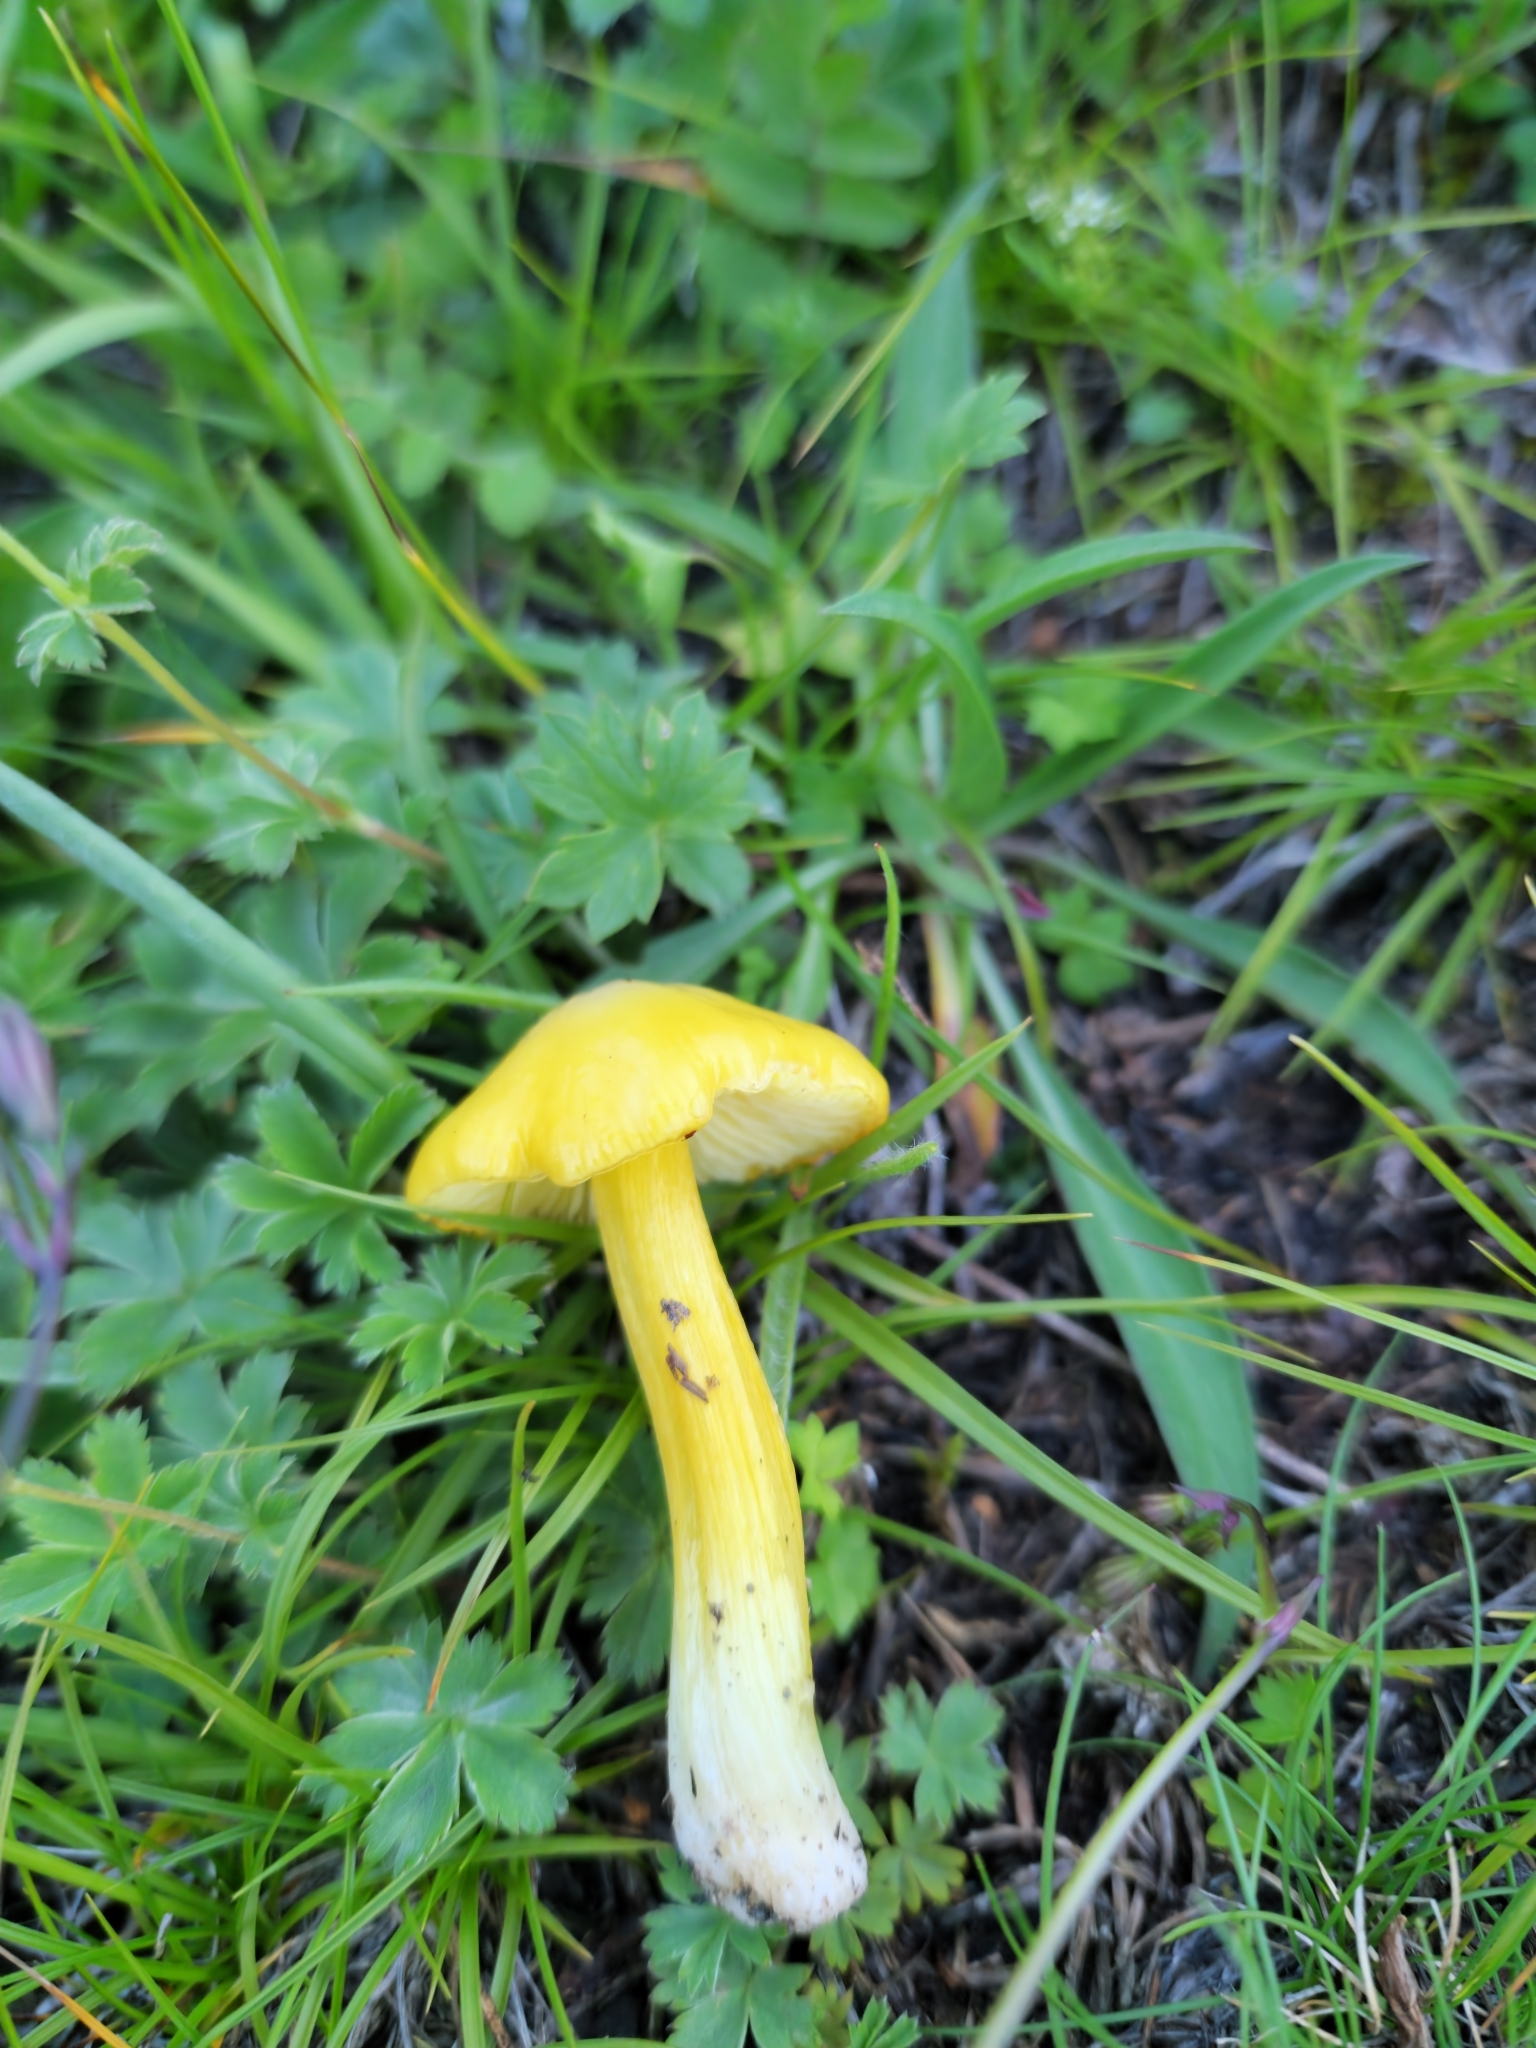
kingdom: Fungi
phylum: Basidiomycota
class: Agaricomycetes
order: Agaricales
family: Hygrophoraceae
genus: Hygrocybe
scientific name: Hygrocybe acutoconica
